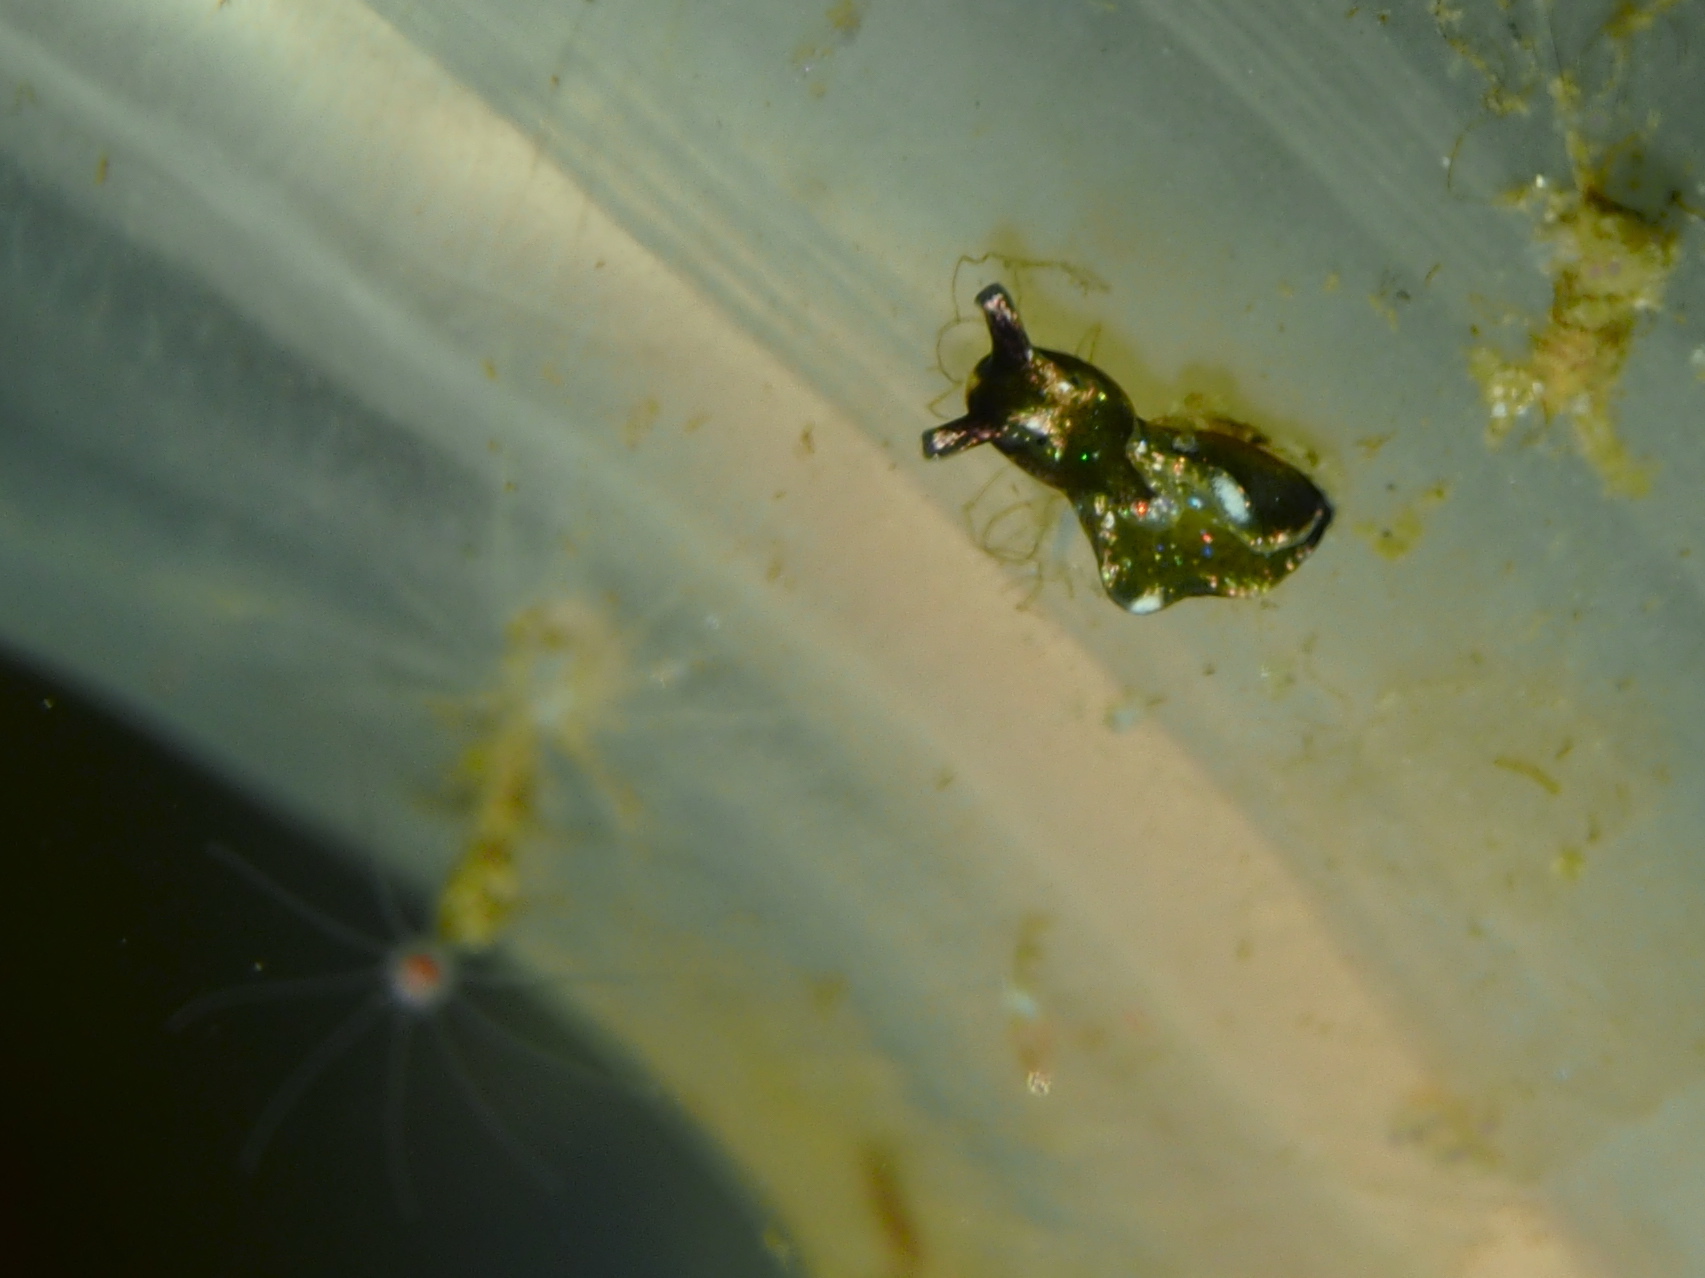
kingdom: Animalia
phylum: Mollusca
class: Gastropoda
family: Plakobranchidae
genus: Elysia
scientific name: Elysia viridis
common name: Green elysia
